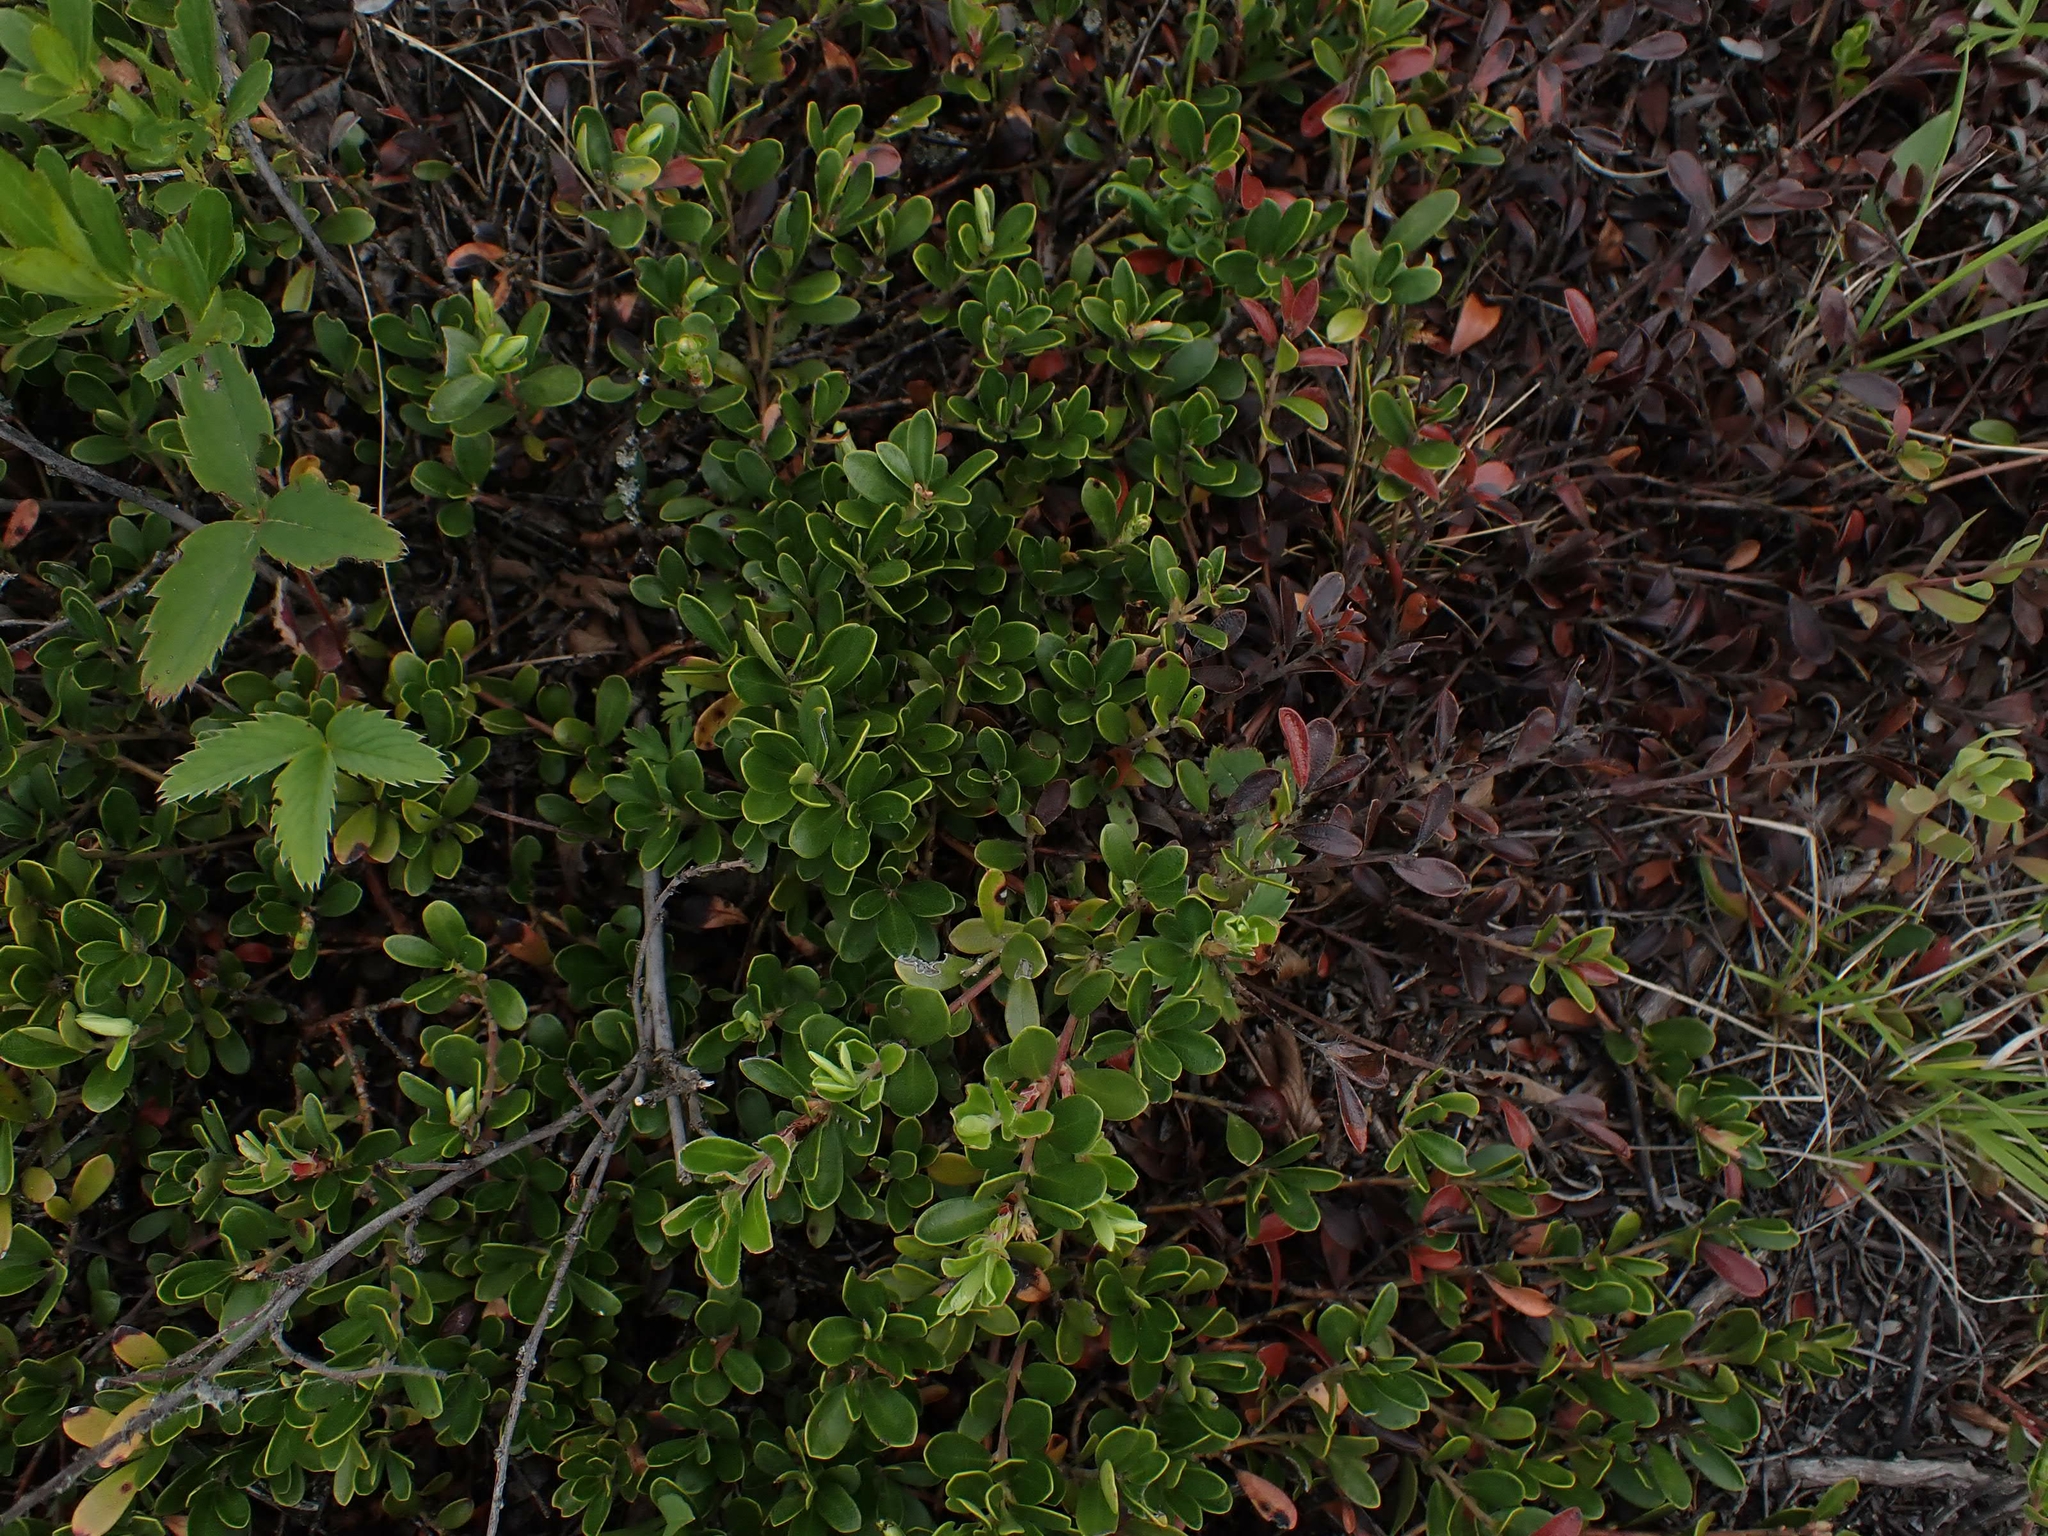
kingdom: Plantae
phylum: Tracheophyta
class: Magnoliopsida
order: Ericales
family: Ericaceae
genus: Arctostaphylos
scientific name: Arctostaphylos uva-ursi
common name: Bearberry
